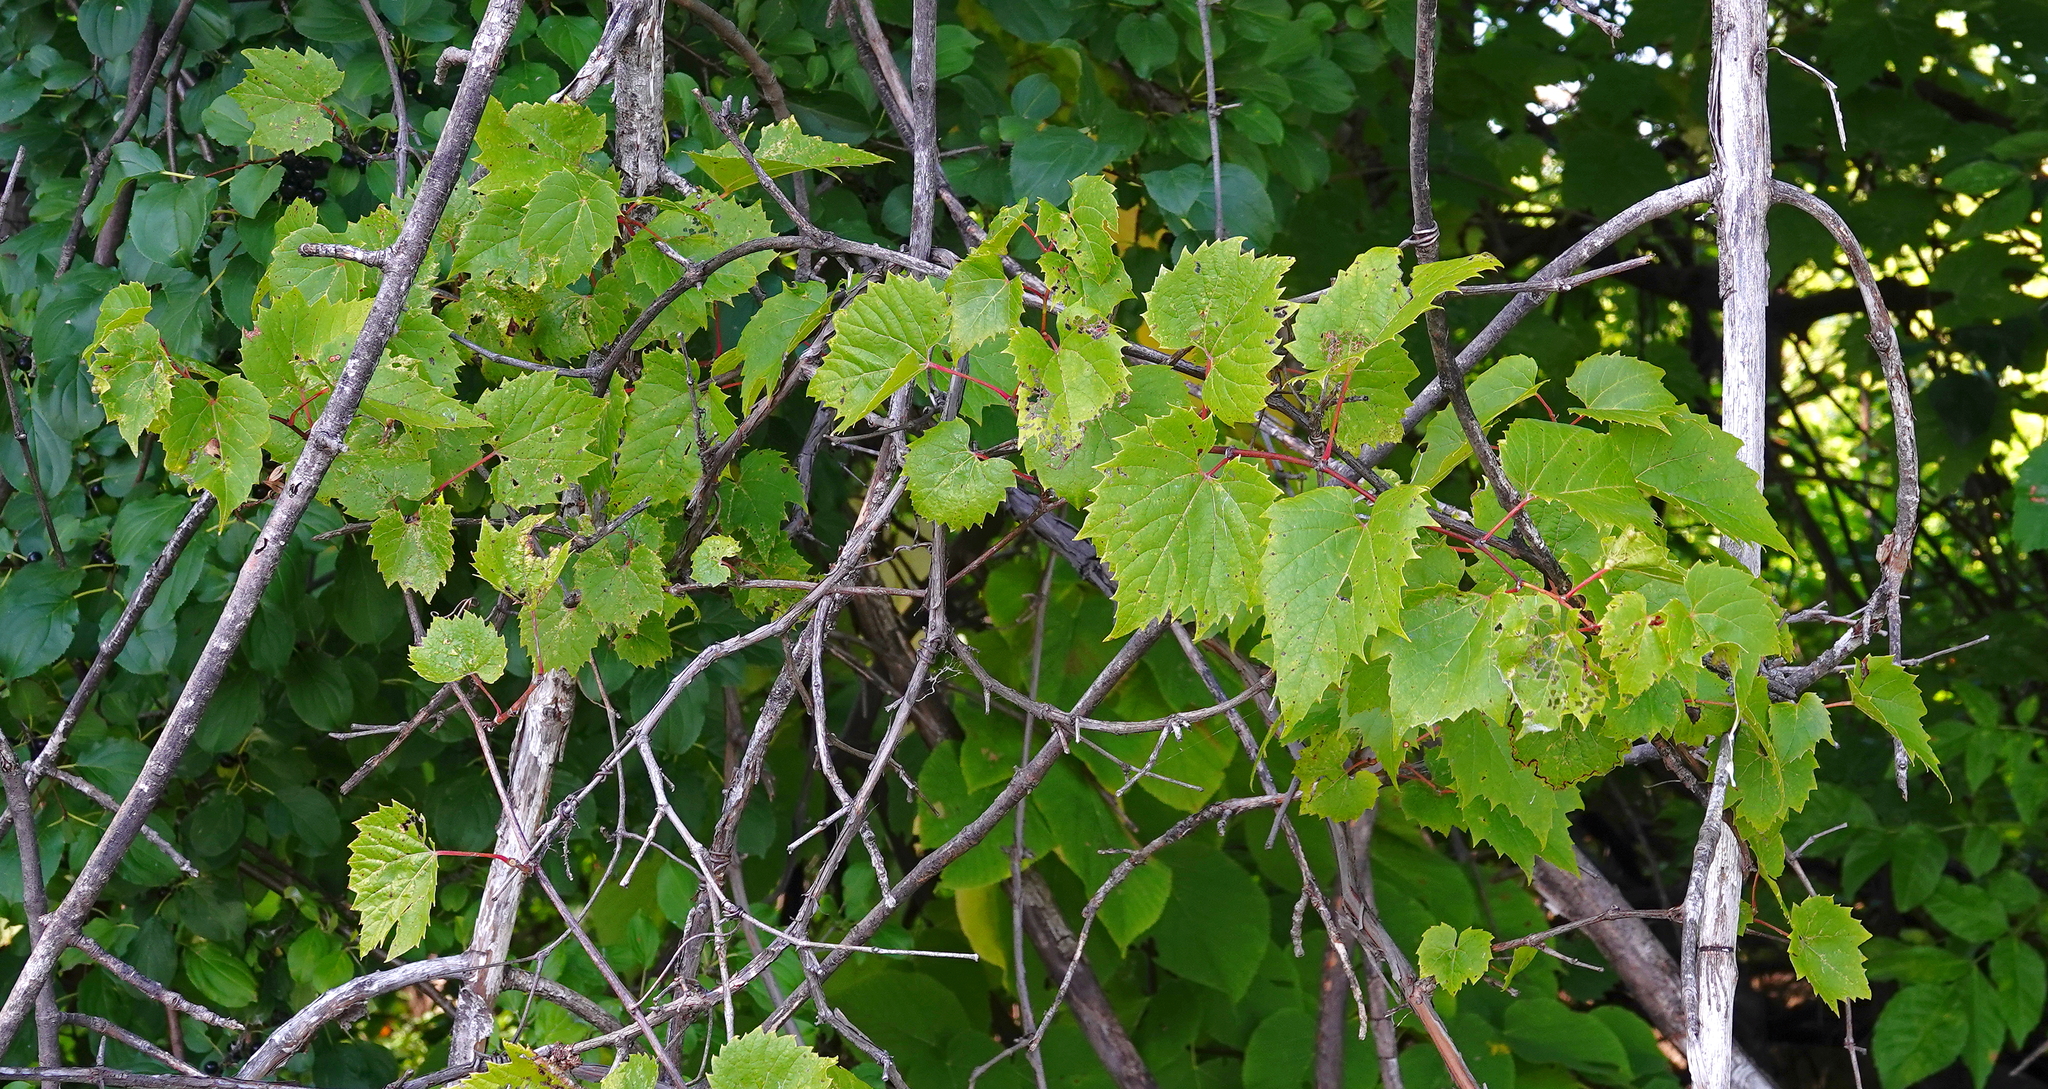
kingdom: Plantae
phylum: Tracheophyta
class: Magnoliopsida
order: Vitales
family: Vitaceae
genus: Vitis
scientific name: Vitis riparia
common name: Frost grape
